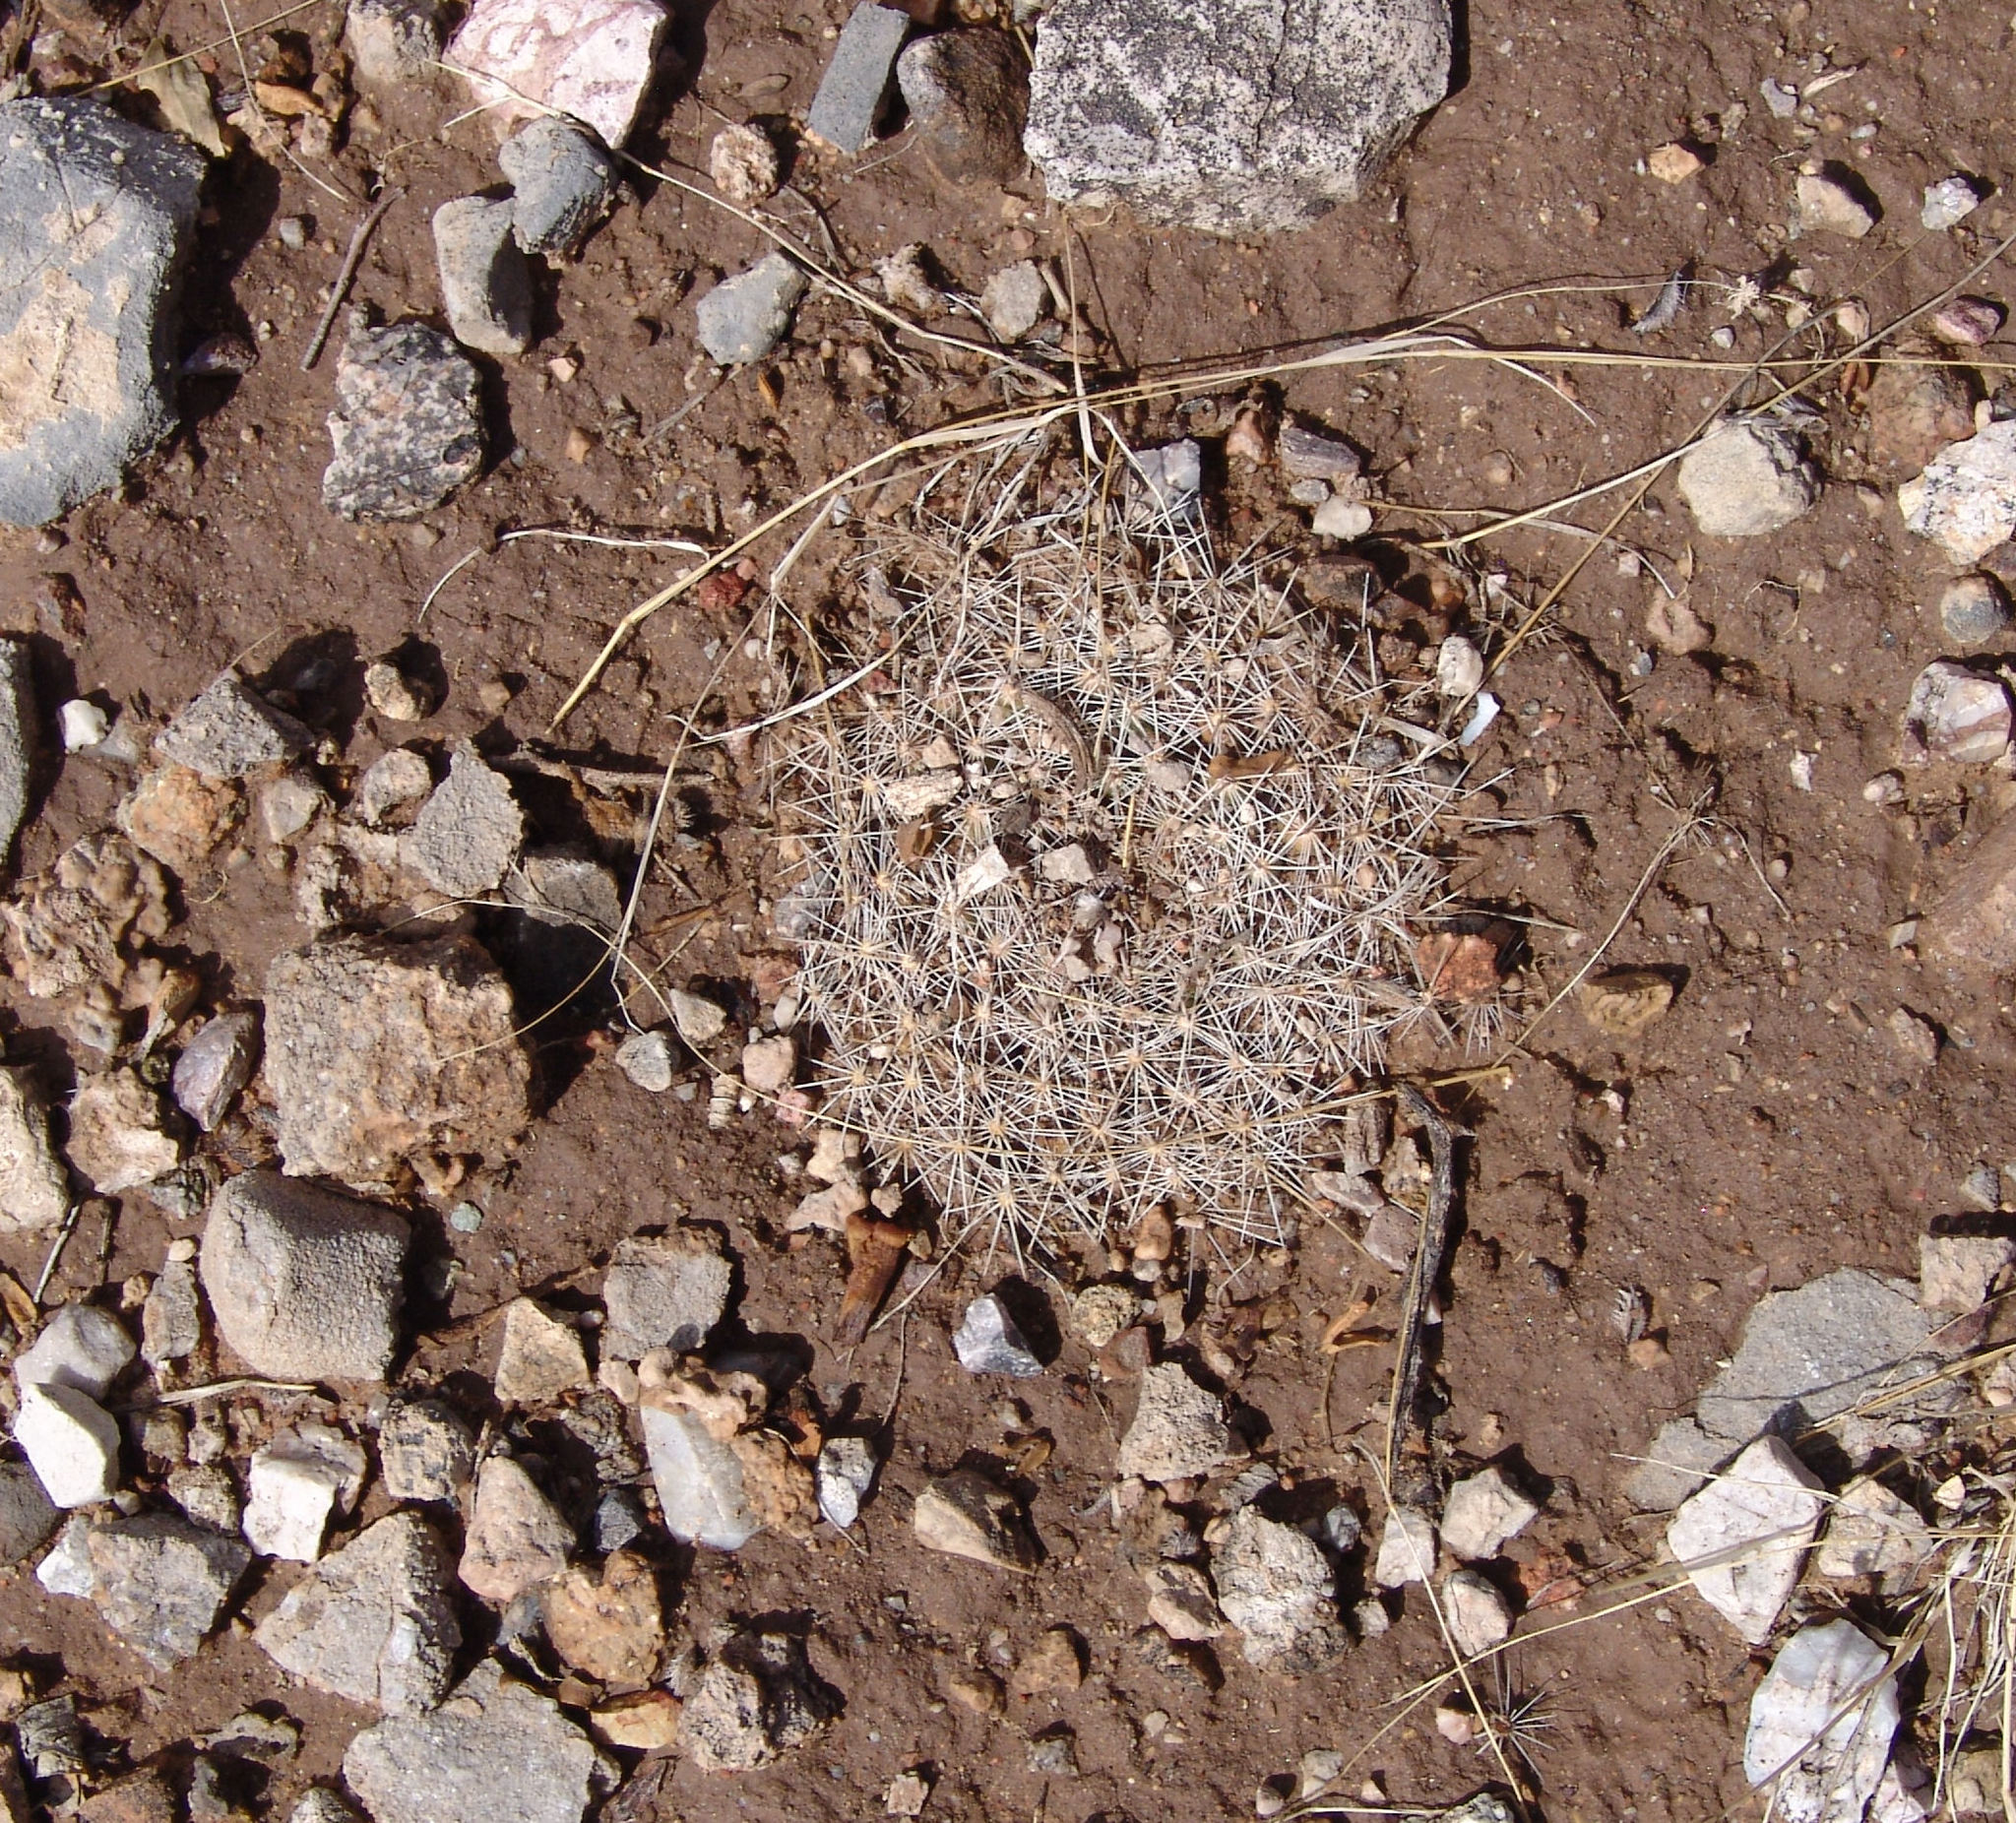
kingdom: Plantae
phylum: Tracheophyta
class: Magnoliopsida
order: Caryophyllales
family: Cactaceae
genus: Mammillaria
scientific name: Mammillaria heyderi
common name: Little nipple cactus
